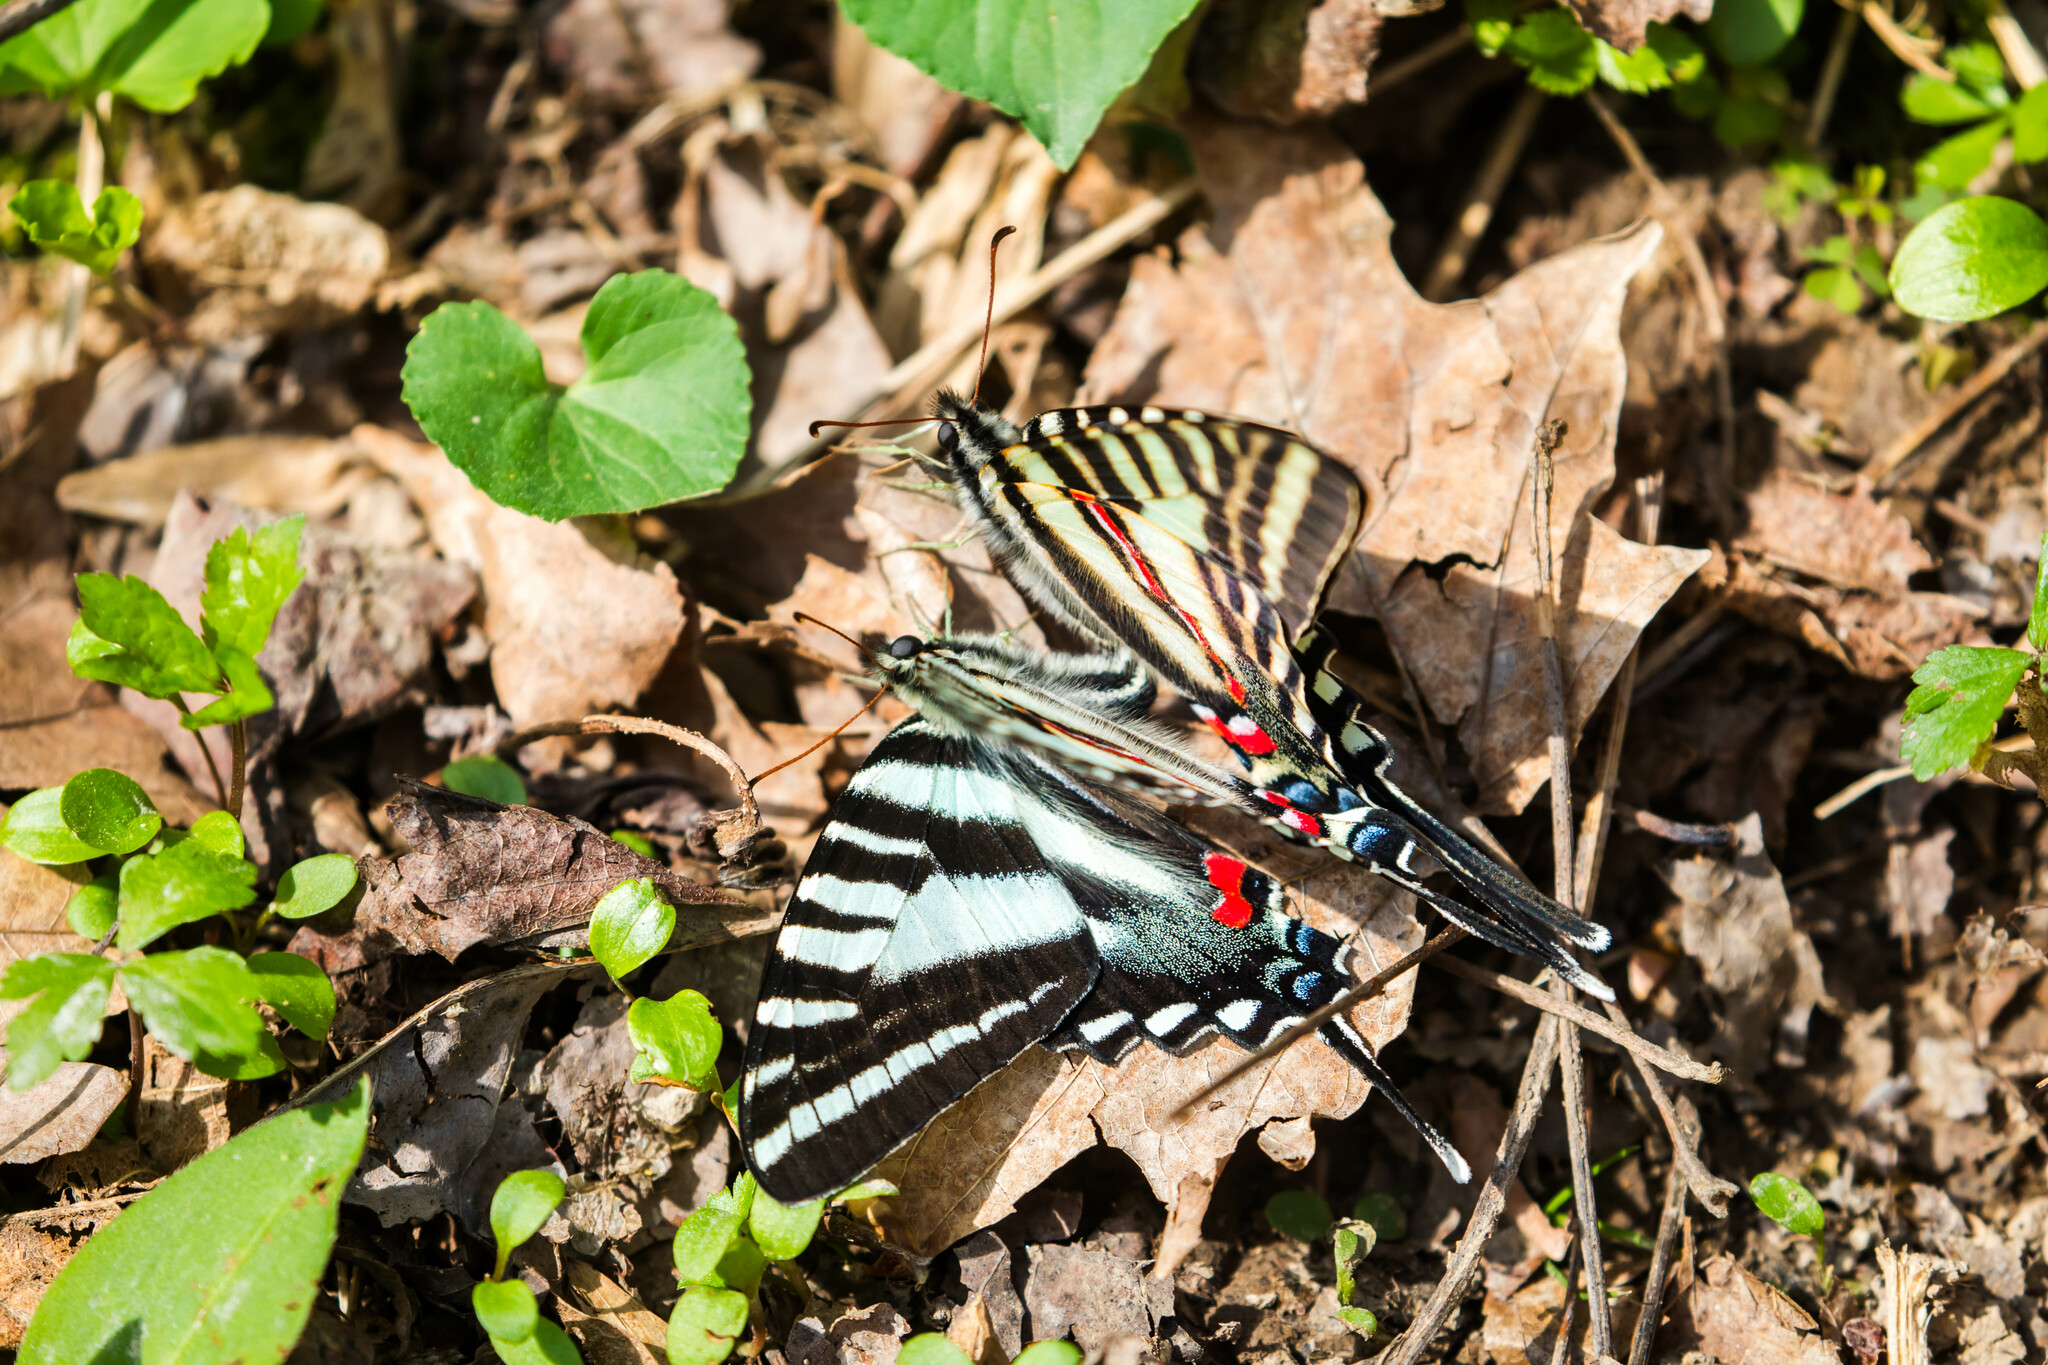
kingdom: Animalia
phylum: Arthropoda
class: Insecta
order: Lepidoptera
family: Papilionidae
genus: Protographium
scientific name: Protographium marcellus
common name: Zebra swallowtail
